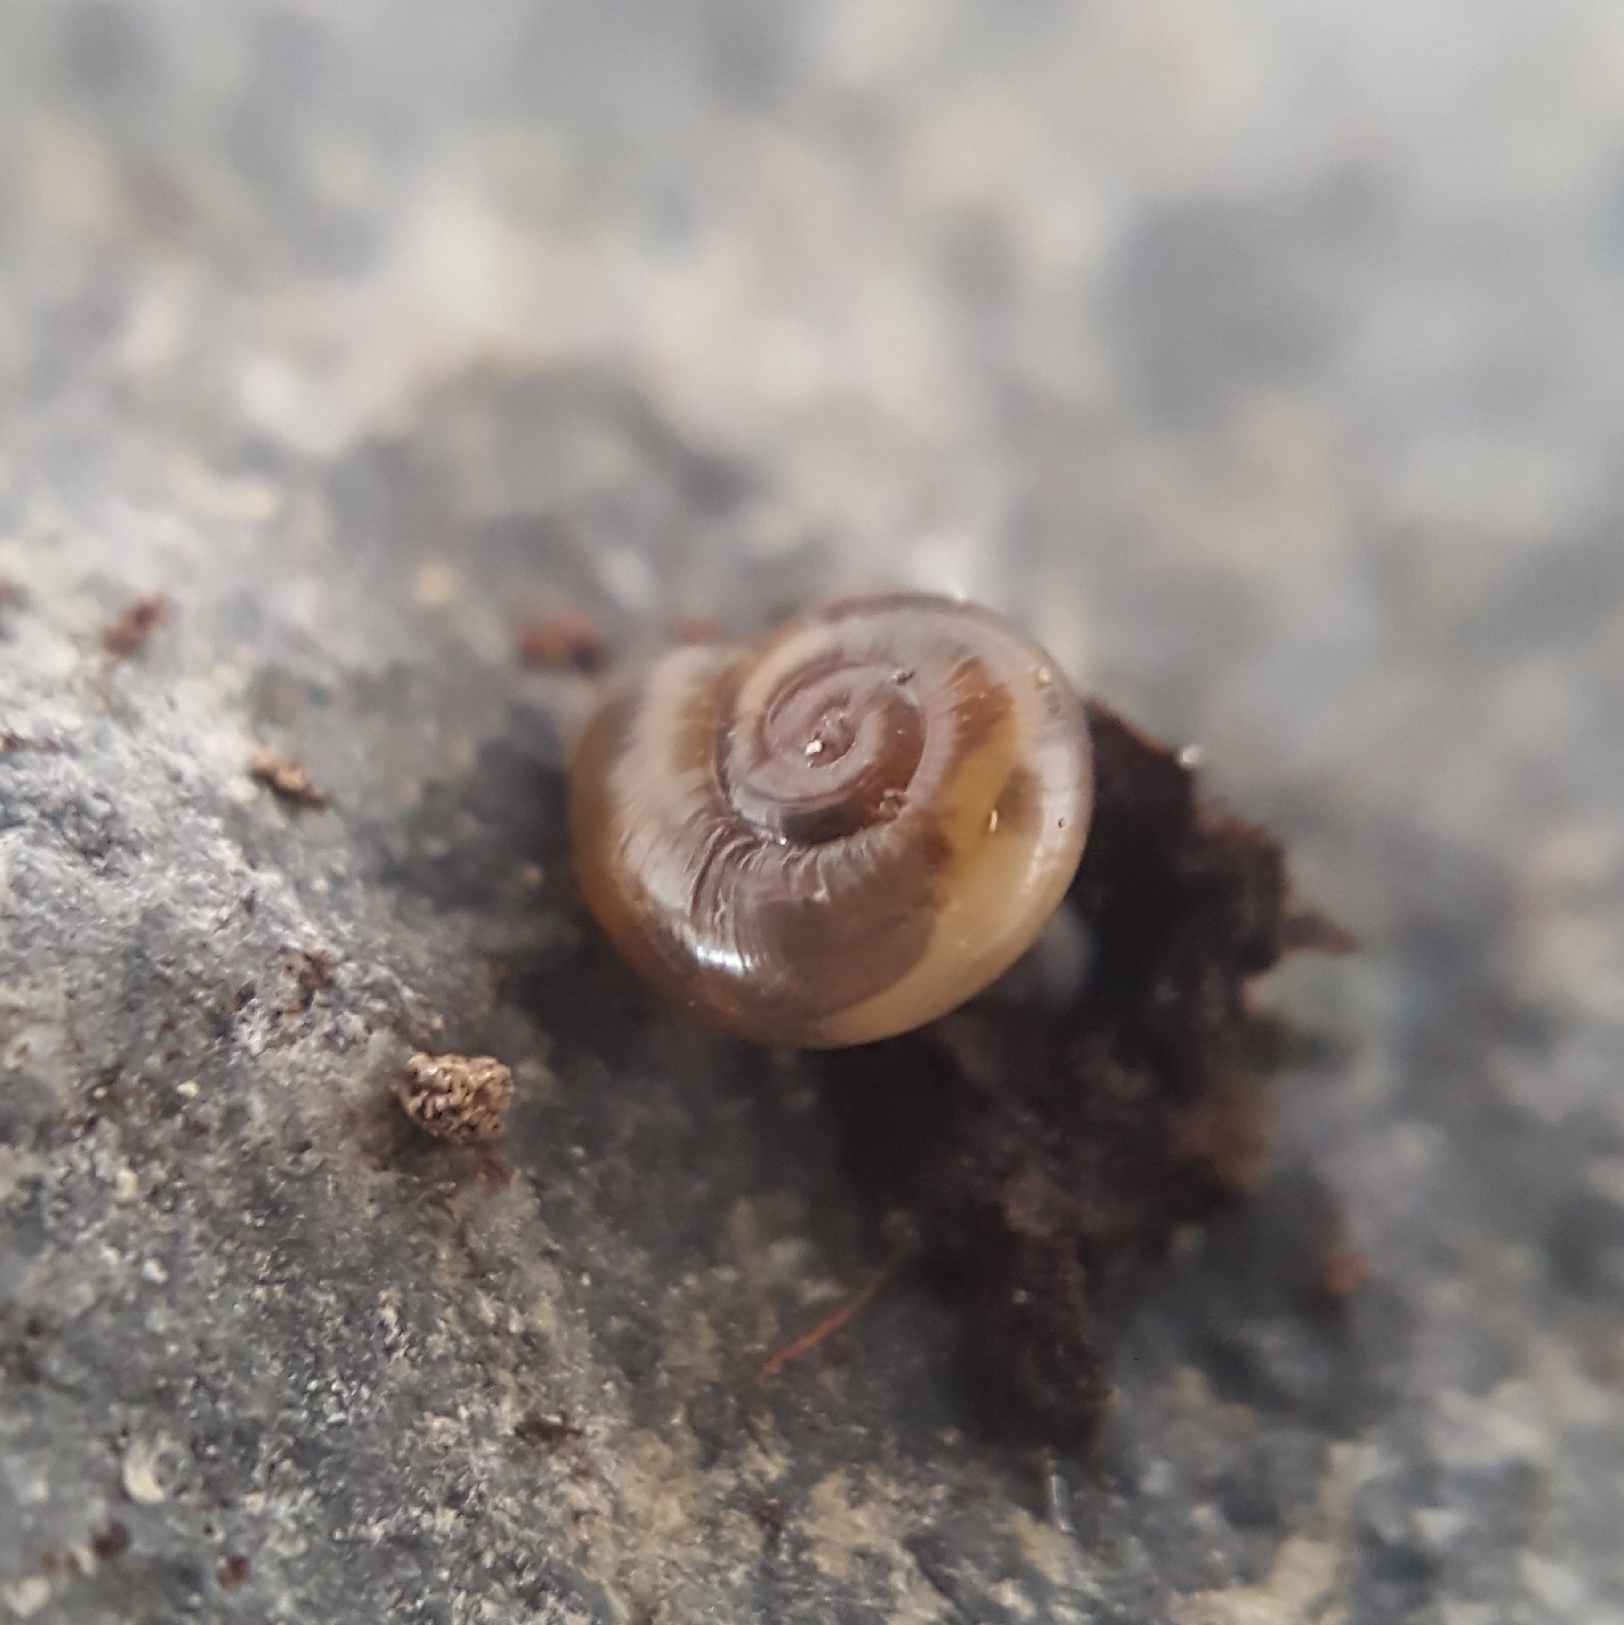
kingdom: Animalia
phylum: Mollusca
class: Gastropoda
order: Stylommatophora
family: Oxychilidae
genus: Oxychilus
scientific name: Oxychilus draparnaudi
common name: Draparnaud's glass snail
